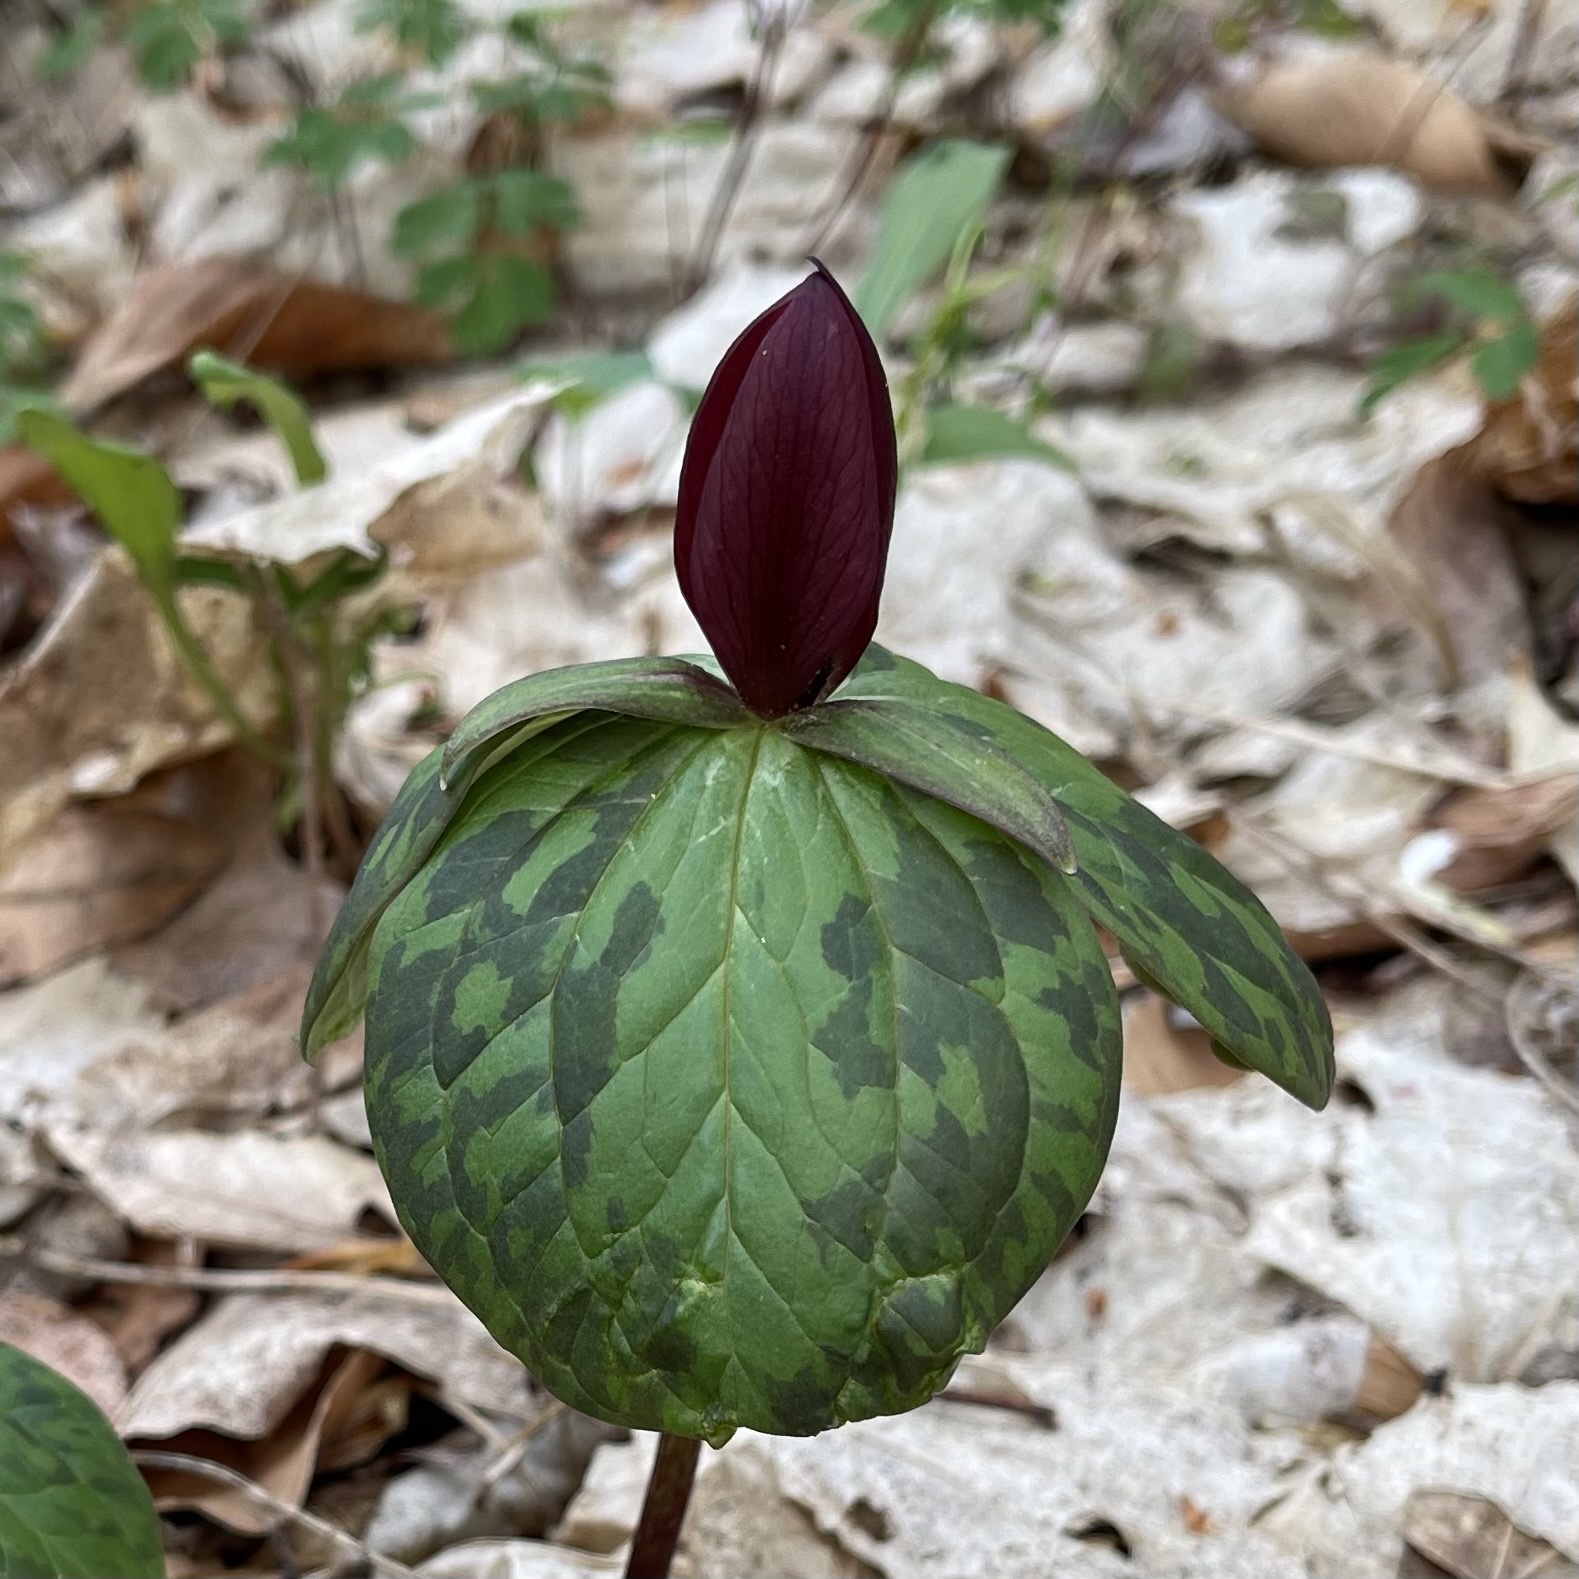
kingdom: Plantae
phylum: Tracheophyta
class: Liliopsida
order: Liliales
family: Melanthiaceae
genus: Trillium
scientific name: Trillium sessile
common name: Sessile trillium
